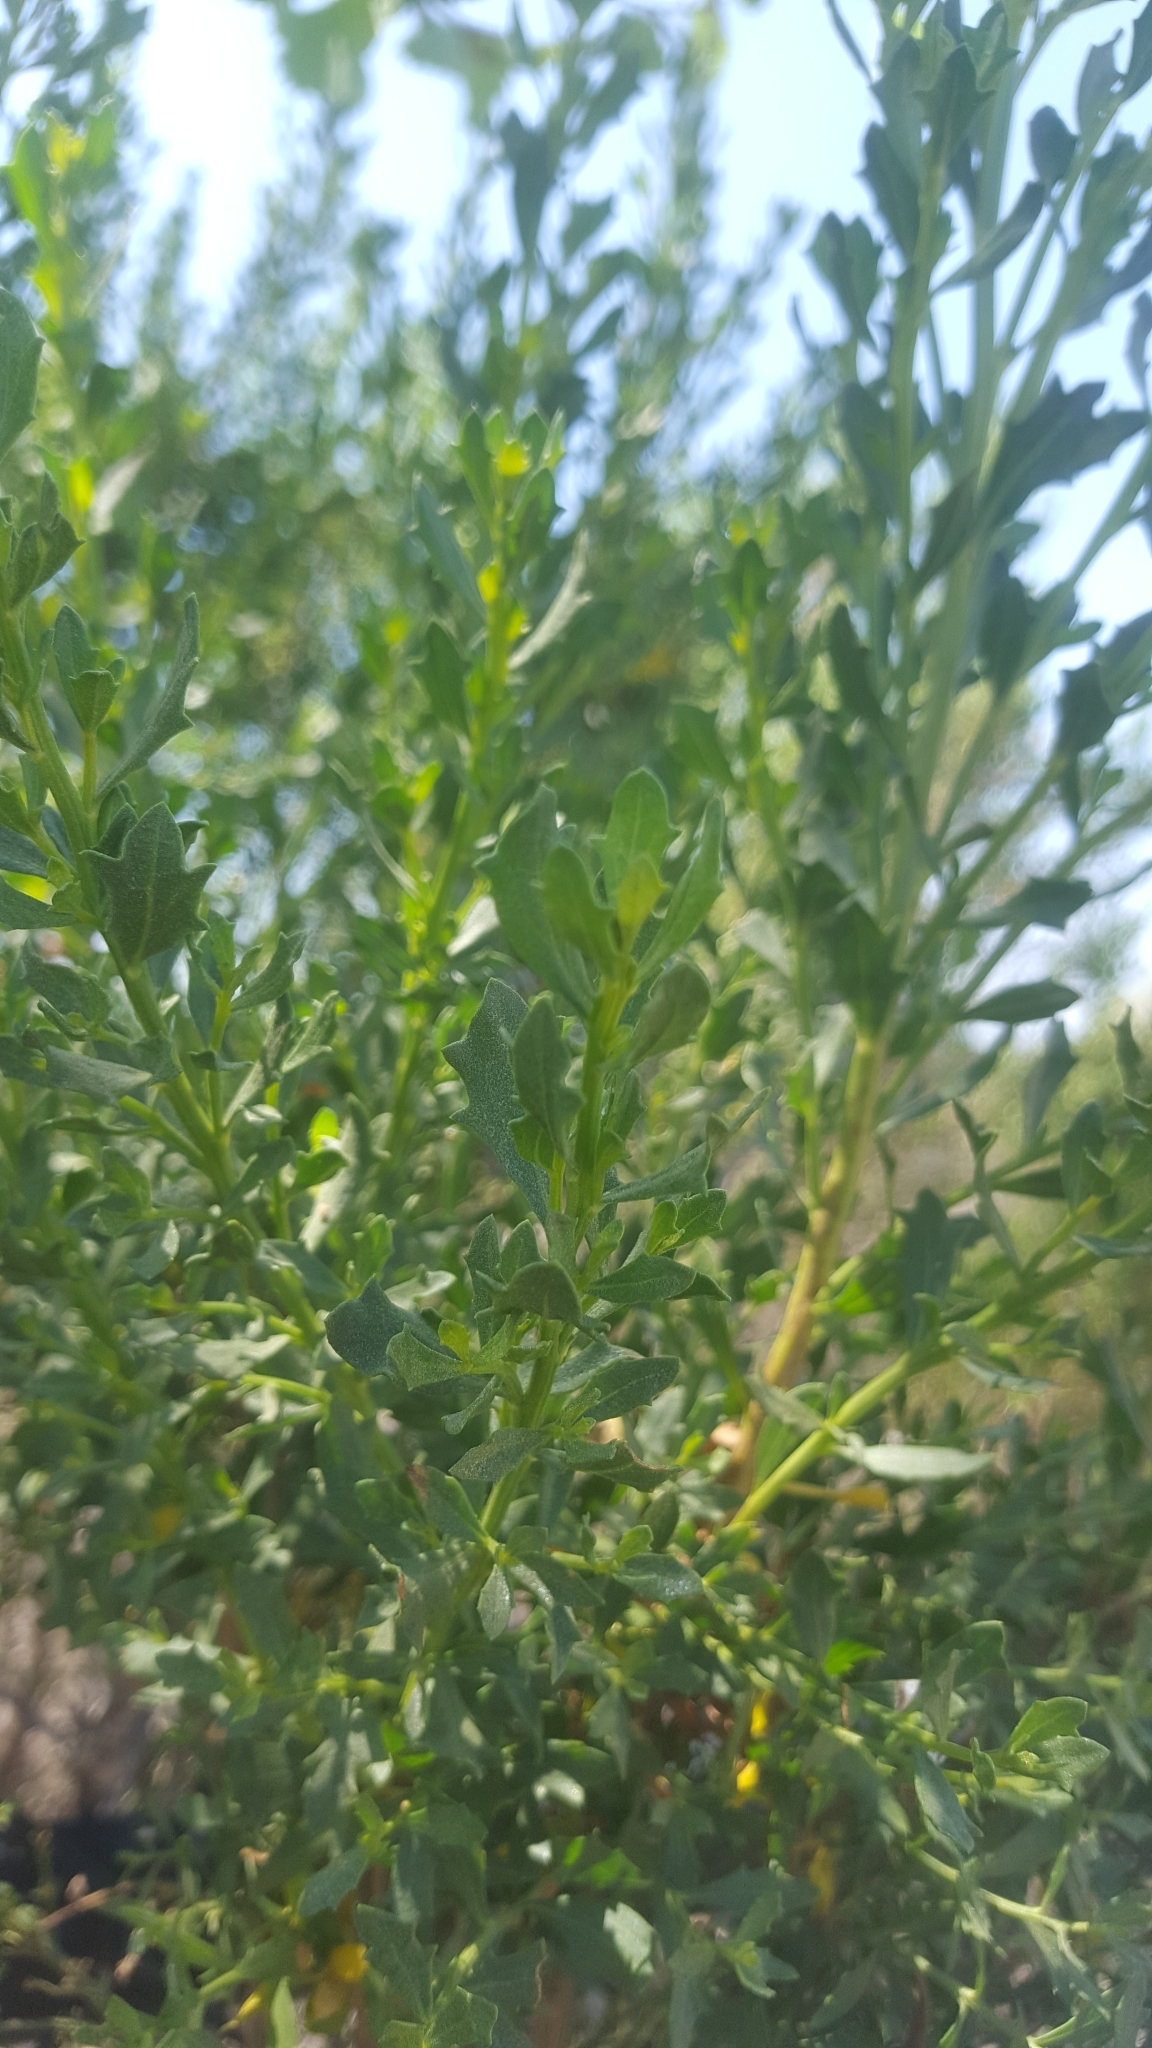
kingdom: Plantae
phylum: Tracheophyta
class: Magnoliopsida
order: Asterales
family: Asteraceae
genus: Baccharis
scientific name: Baccharis pilularis
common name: Coyotebrush
